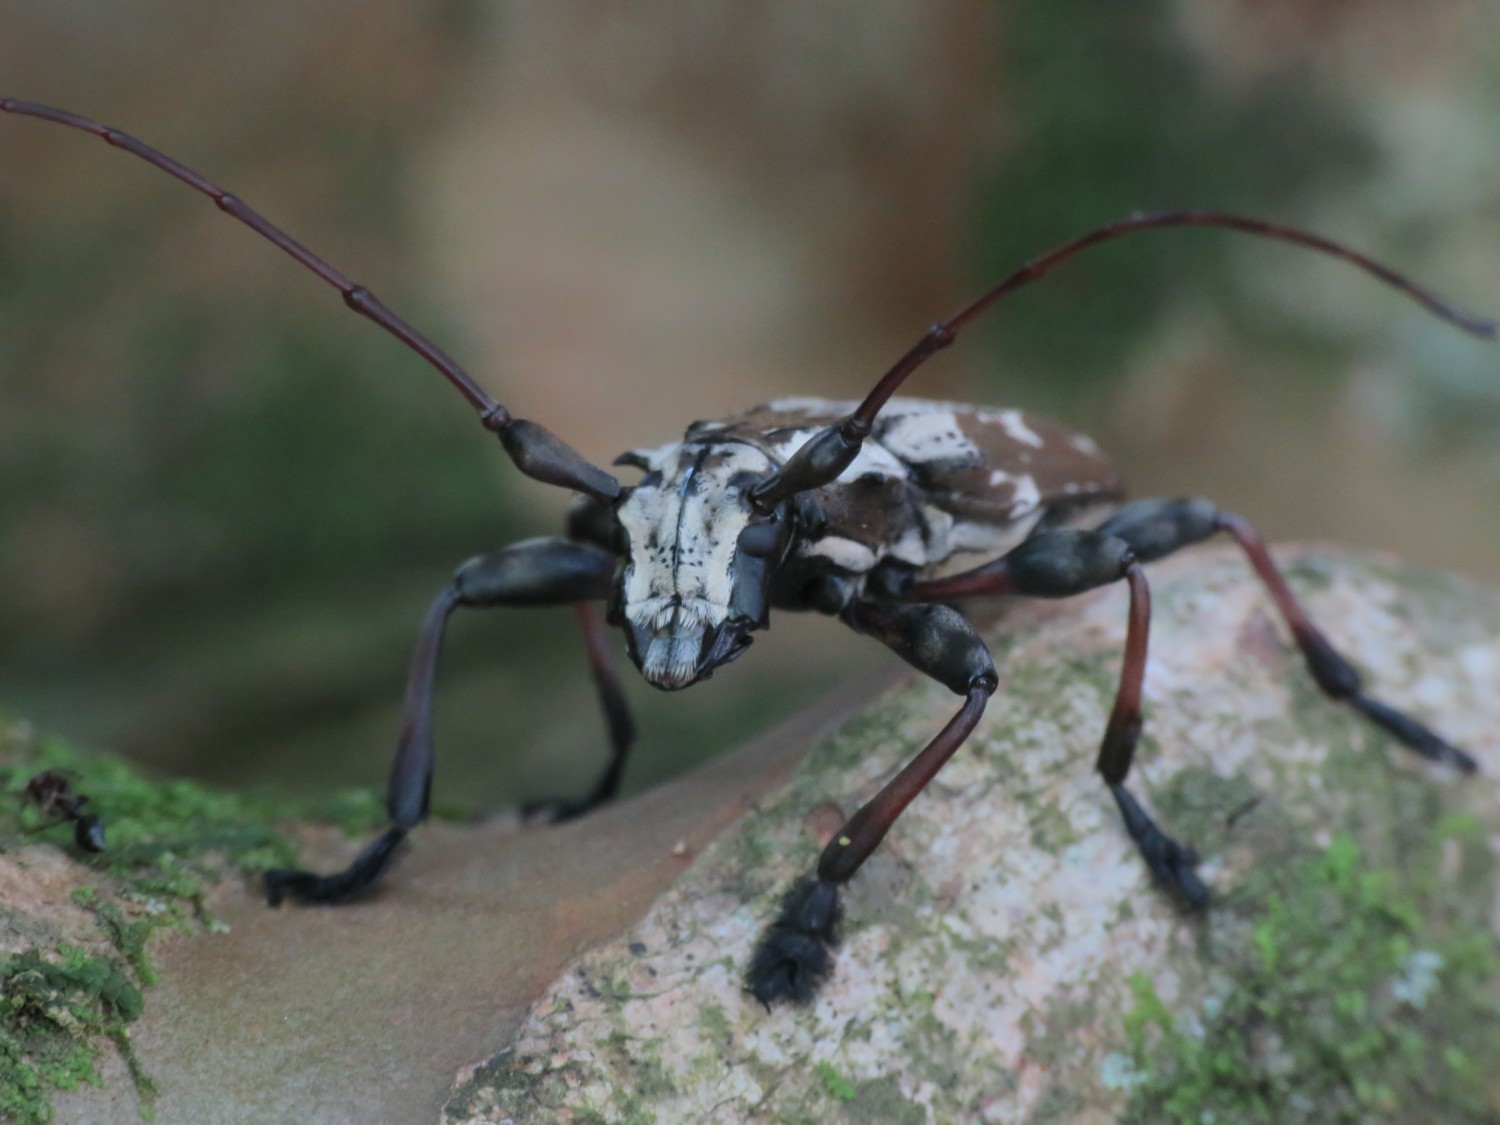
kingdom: Animalia
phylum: Arthropoda
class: Insecta
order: Coleoptera
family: Cerambycidae
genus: Steirastoma
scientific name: Steirastoma marmoratum
